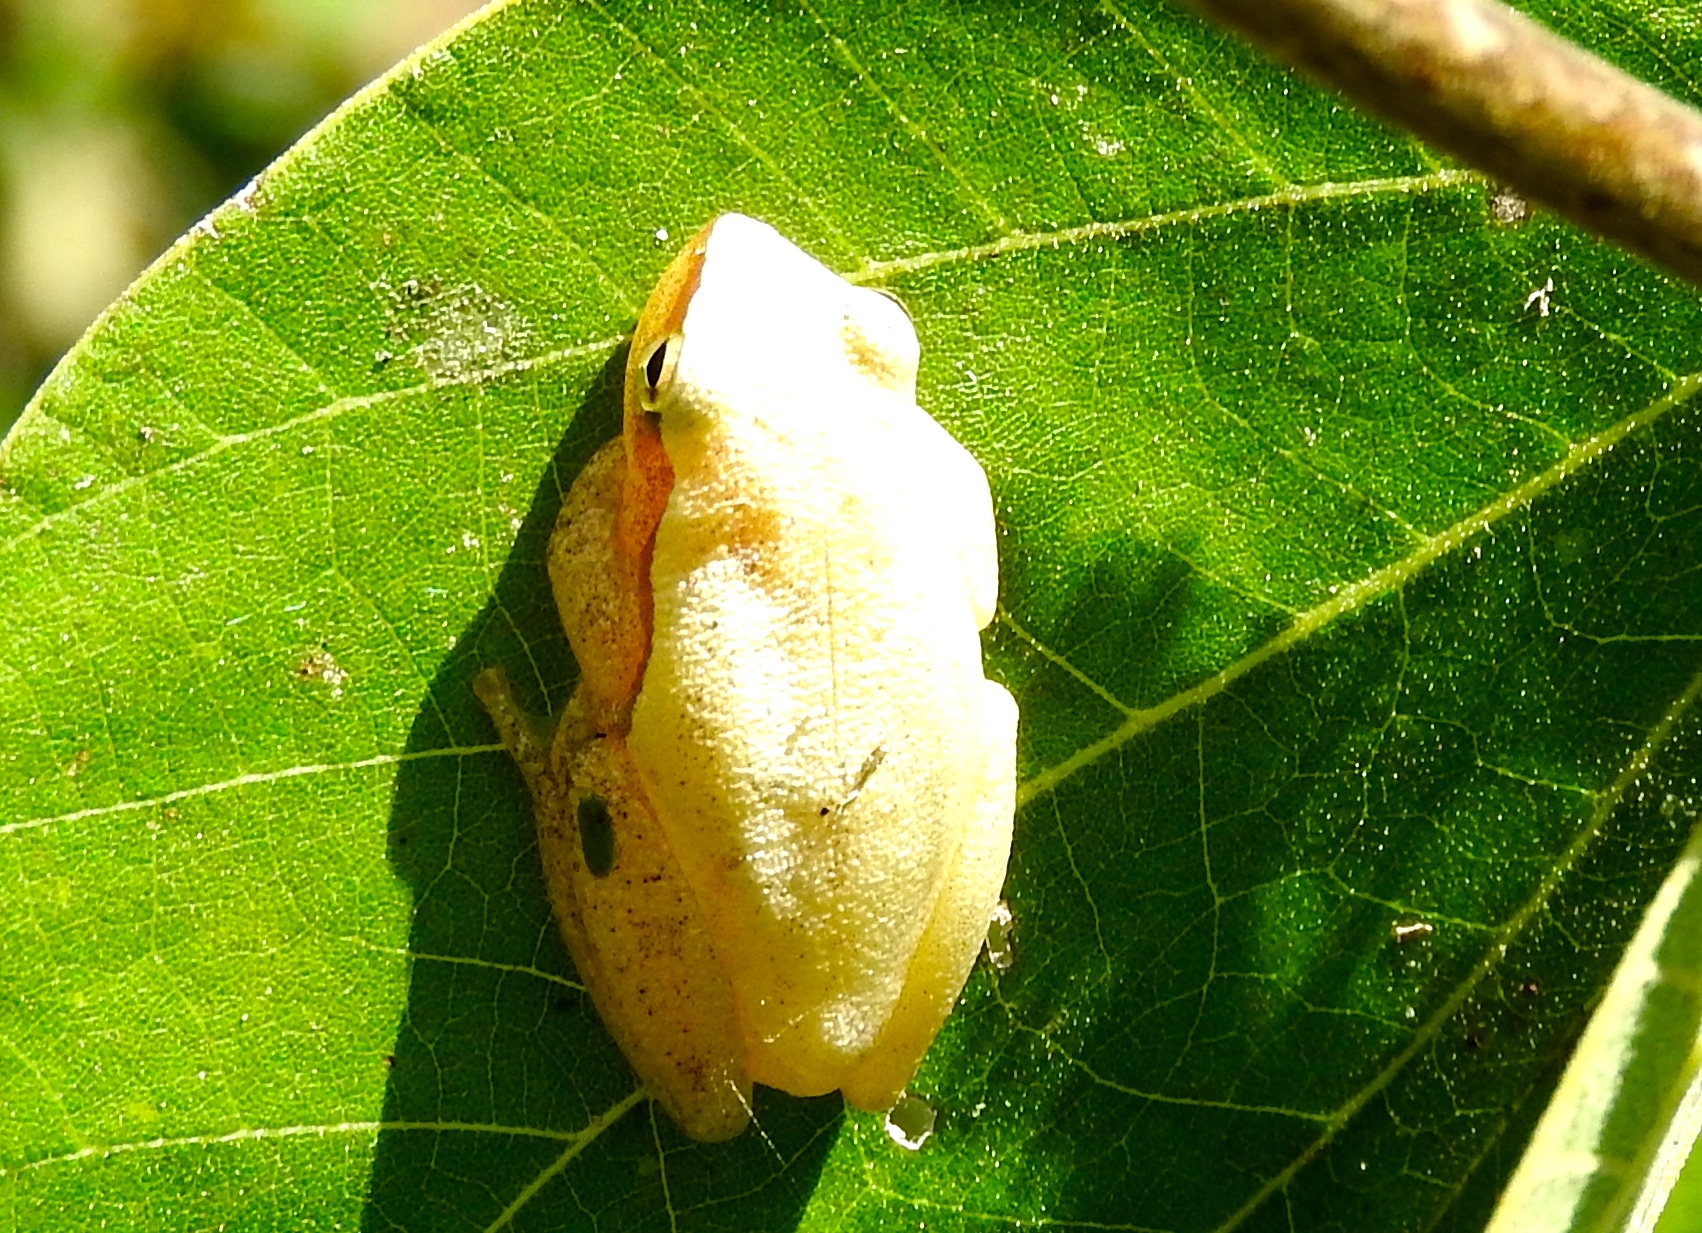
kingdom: Animalia
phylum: Chordata
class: Amphibia
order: Anura
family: Hylidae
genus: Tlalocohyla
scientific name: Tlalocohyla smithii
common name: Dwarf mexican treefrog
